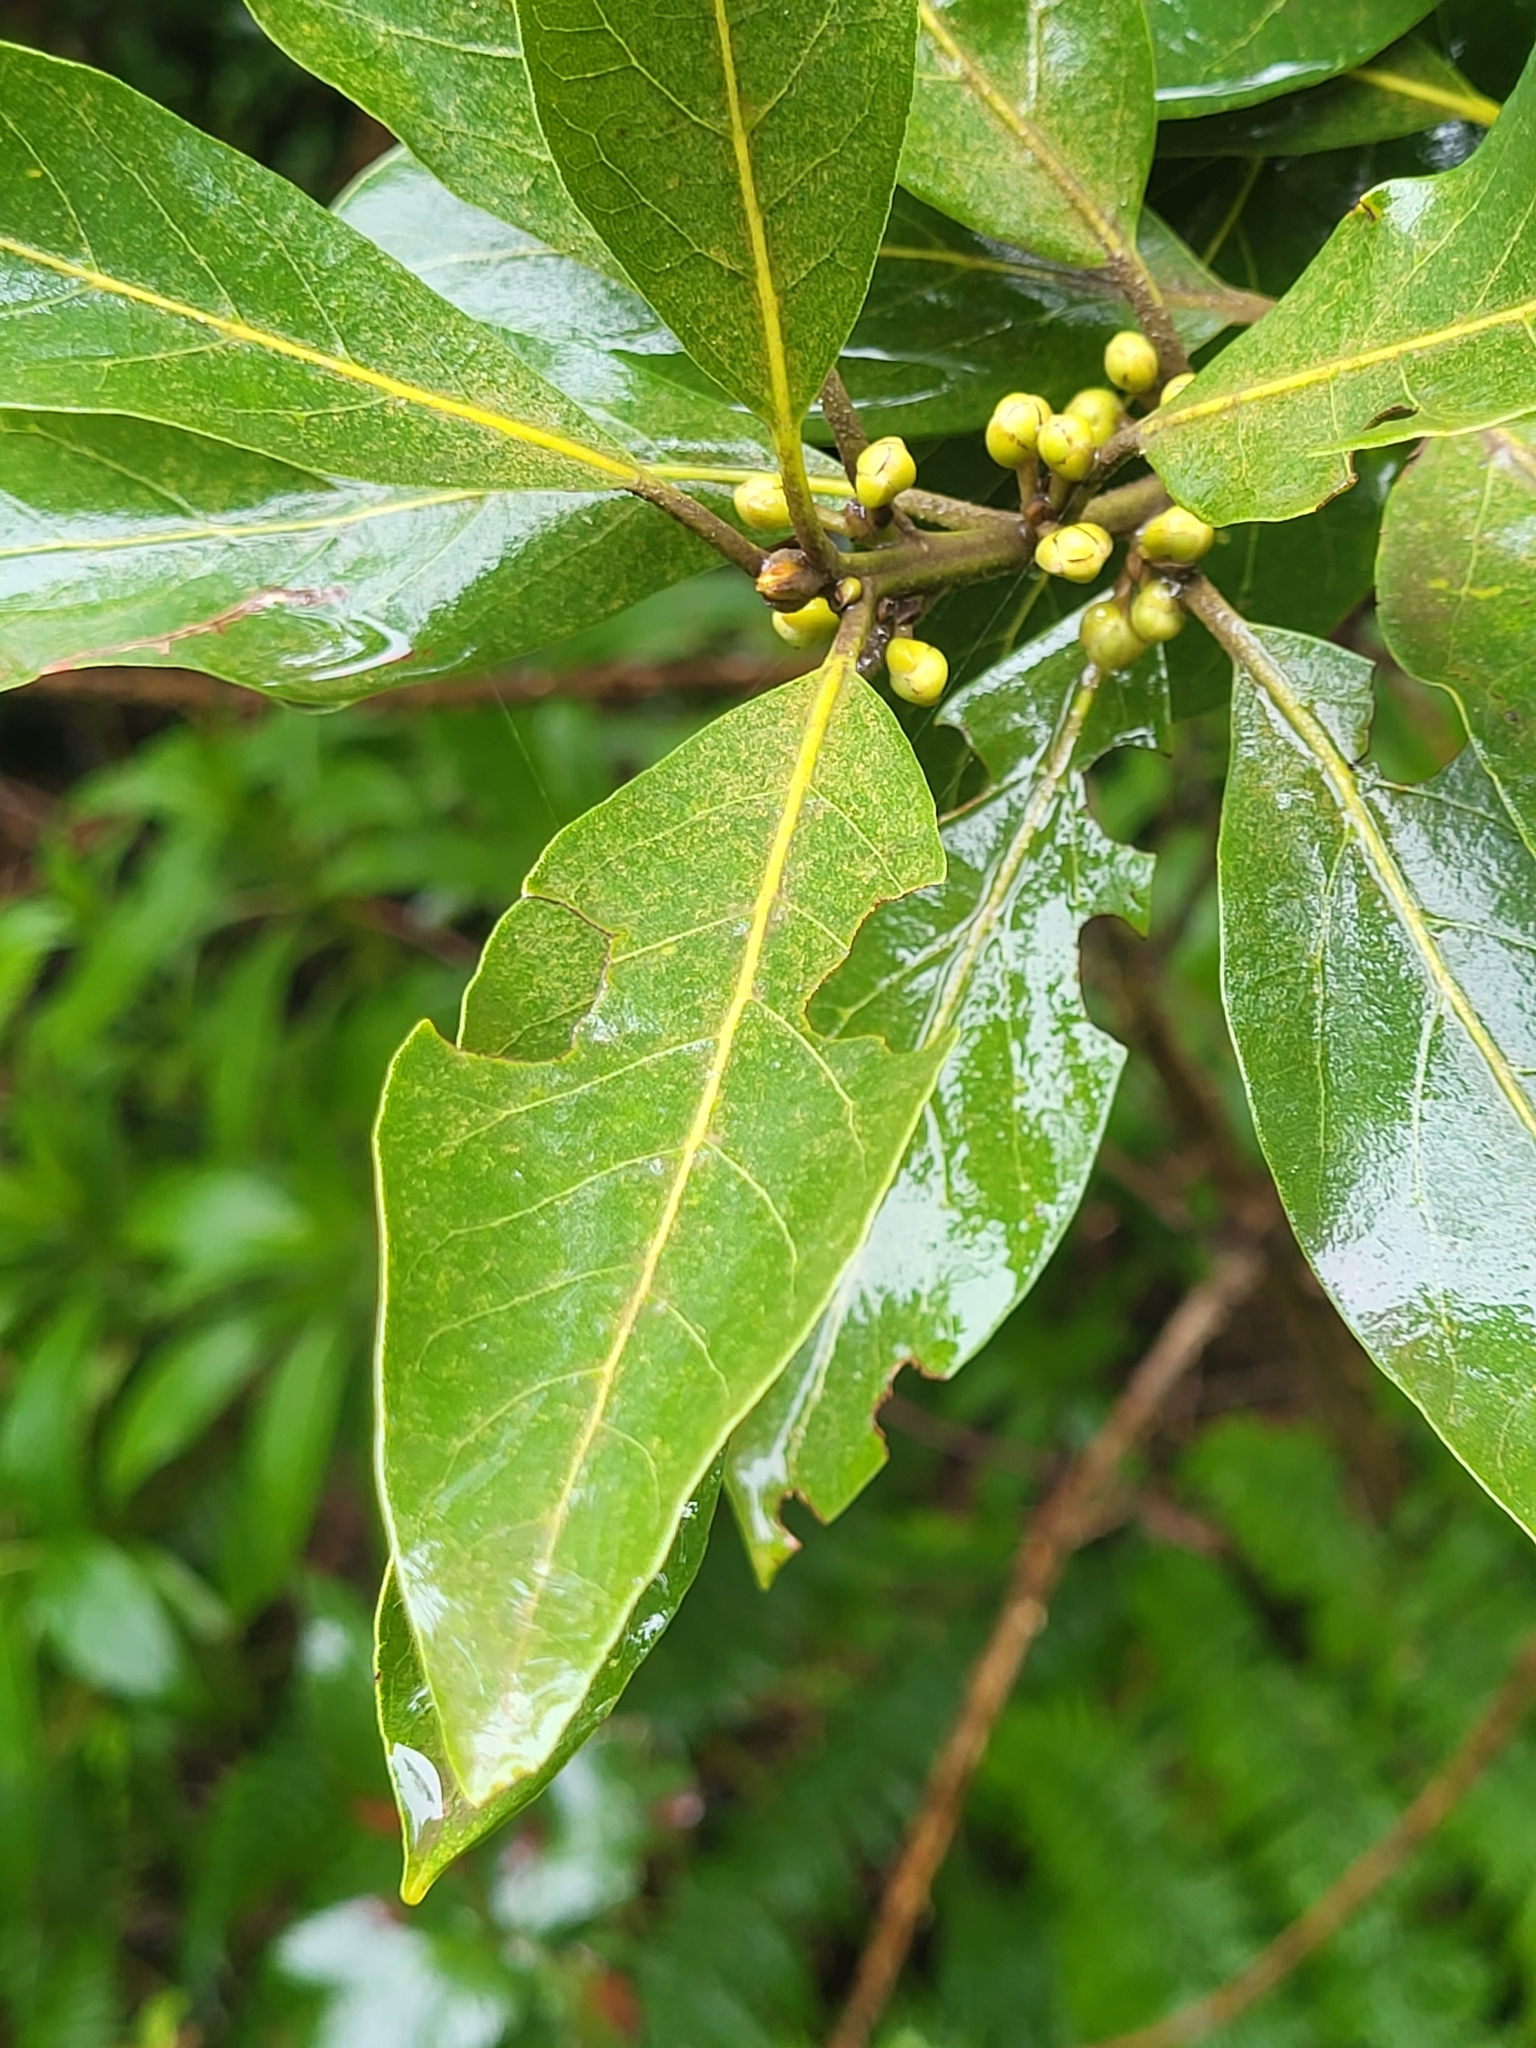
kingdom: Plantae
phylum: Tracheophyta
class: Magnoliopsida
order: Laurales
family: Lauraceae
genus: Laurus
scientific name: Laurus novocanariensis
